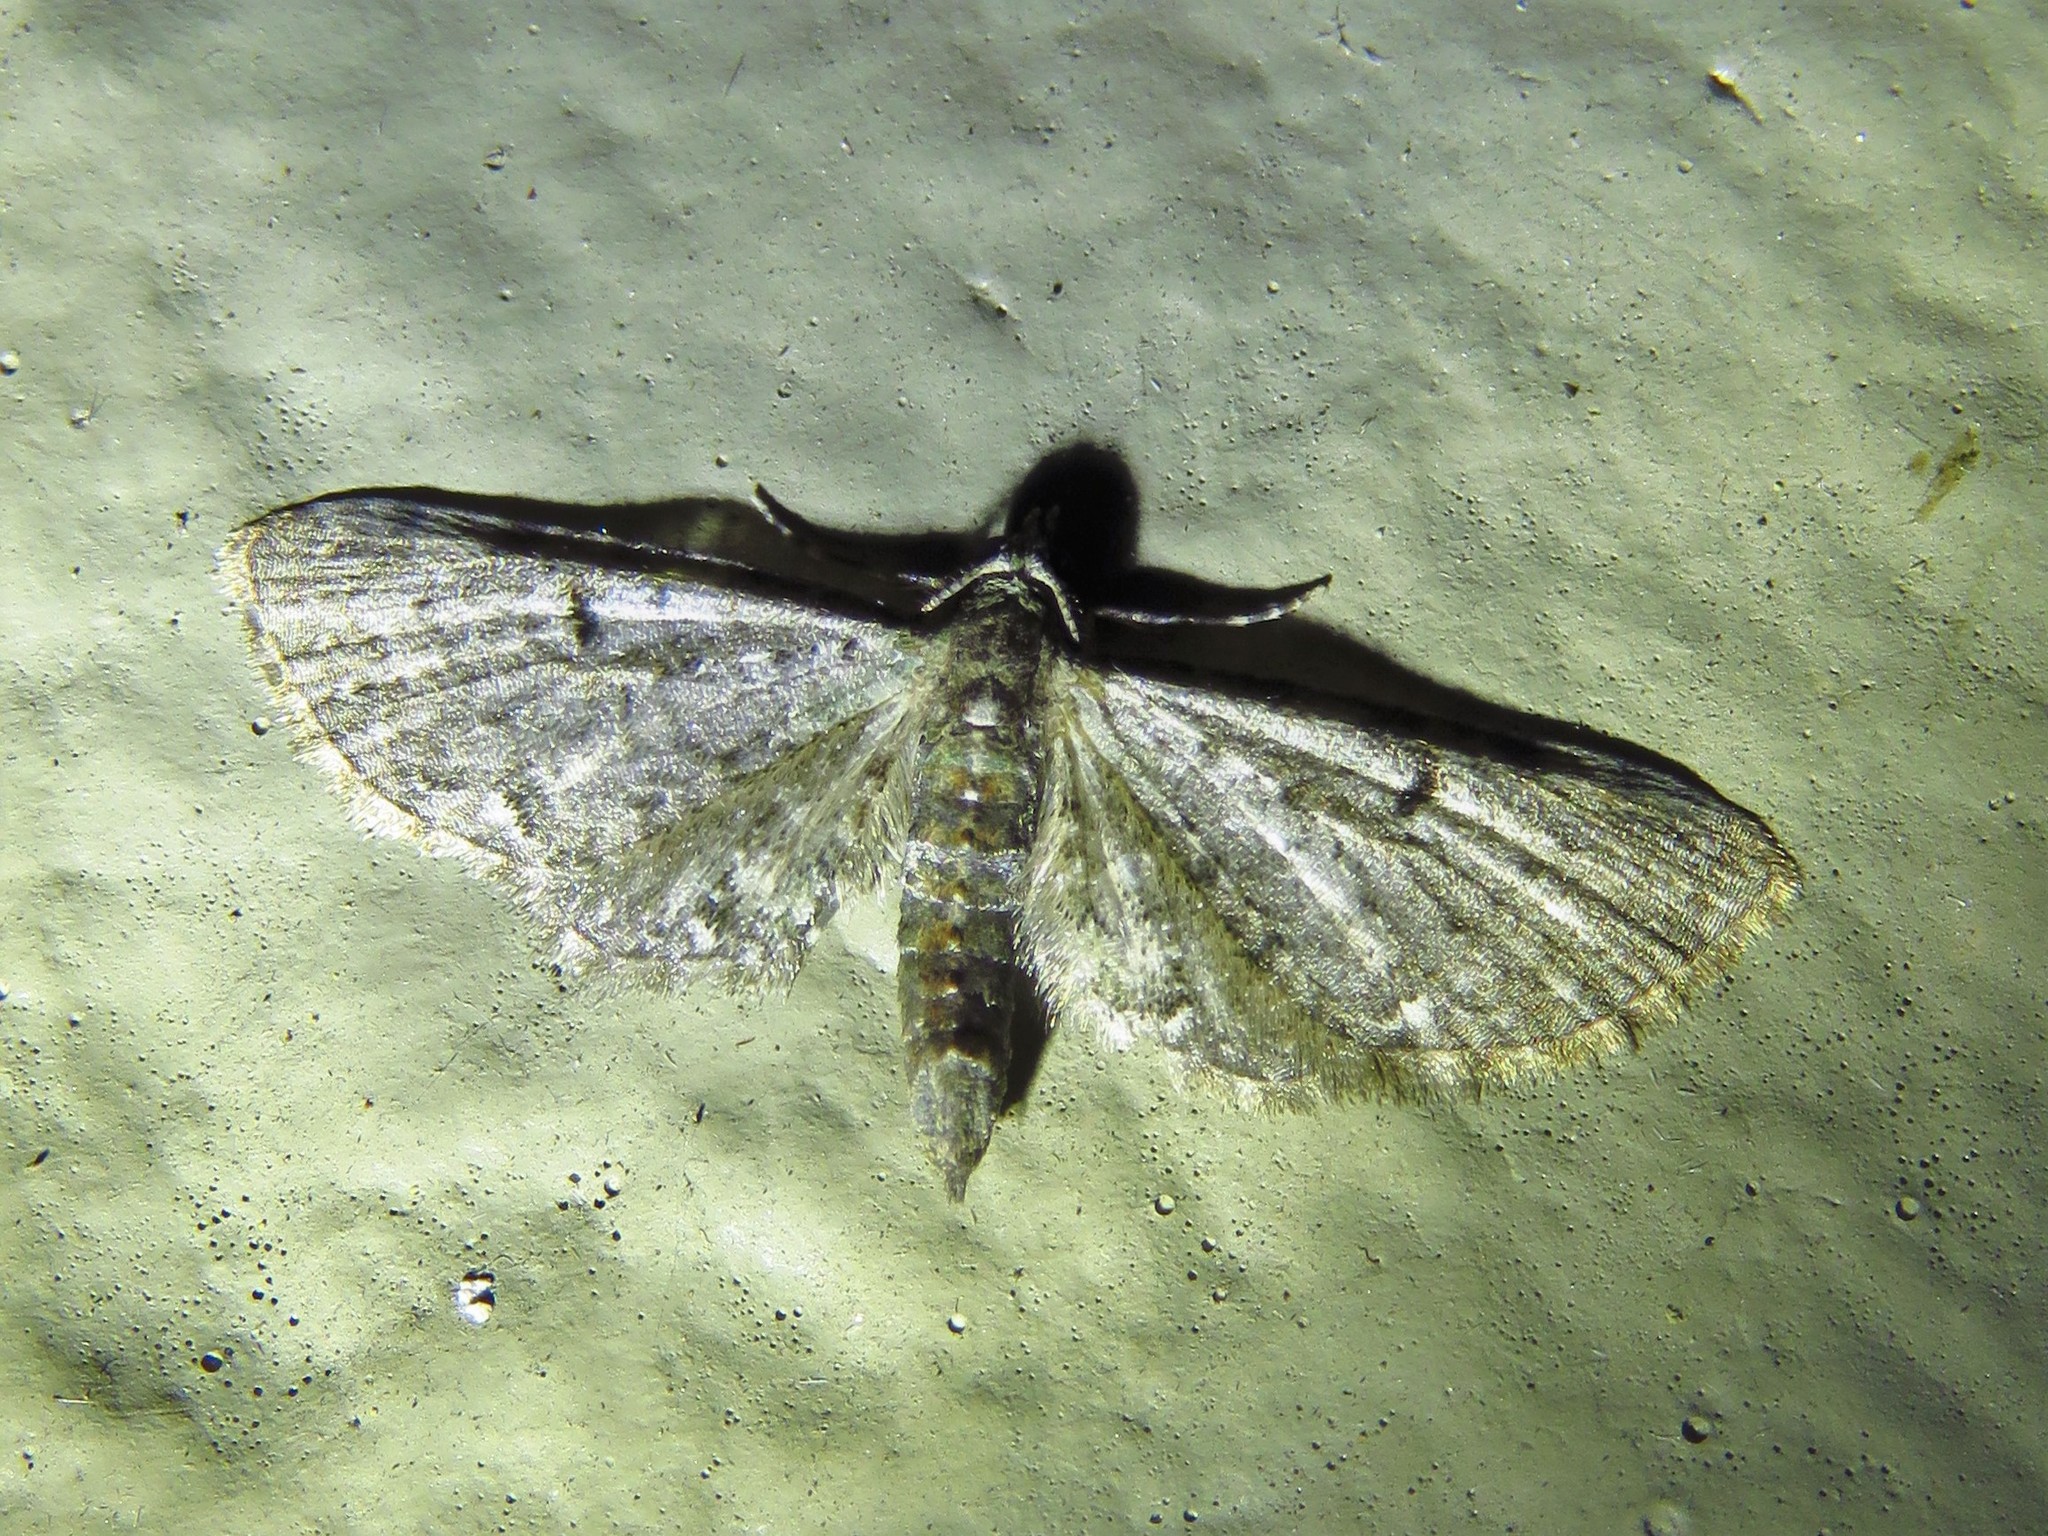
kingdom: Animalia
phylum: Arthropoda
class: Insecta
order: Lepidoptera
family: Geometridae
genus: Eupithecia
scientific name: Eupithecia miserulata
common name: Common eupithecia
